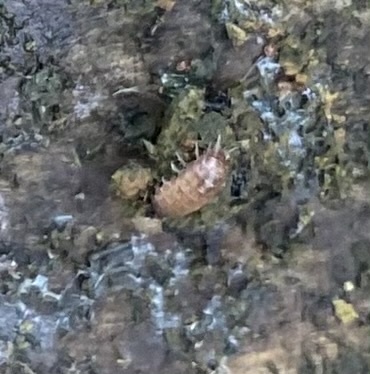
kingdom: Animalia
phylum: Arthropoda
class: Malacostraca
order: Isopoda
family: Trichoniscidae
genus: Trichoniscus
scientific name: Trichoniscus
